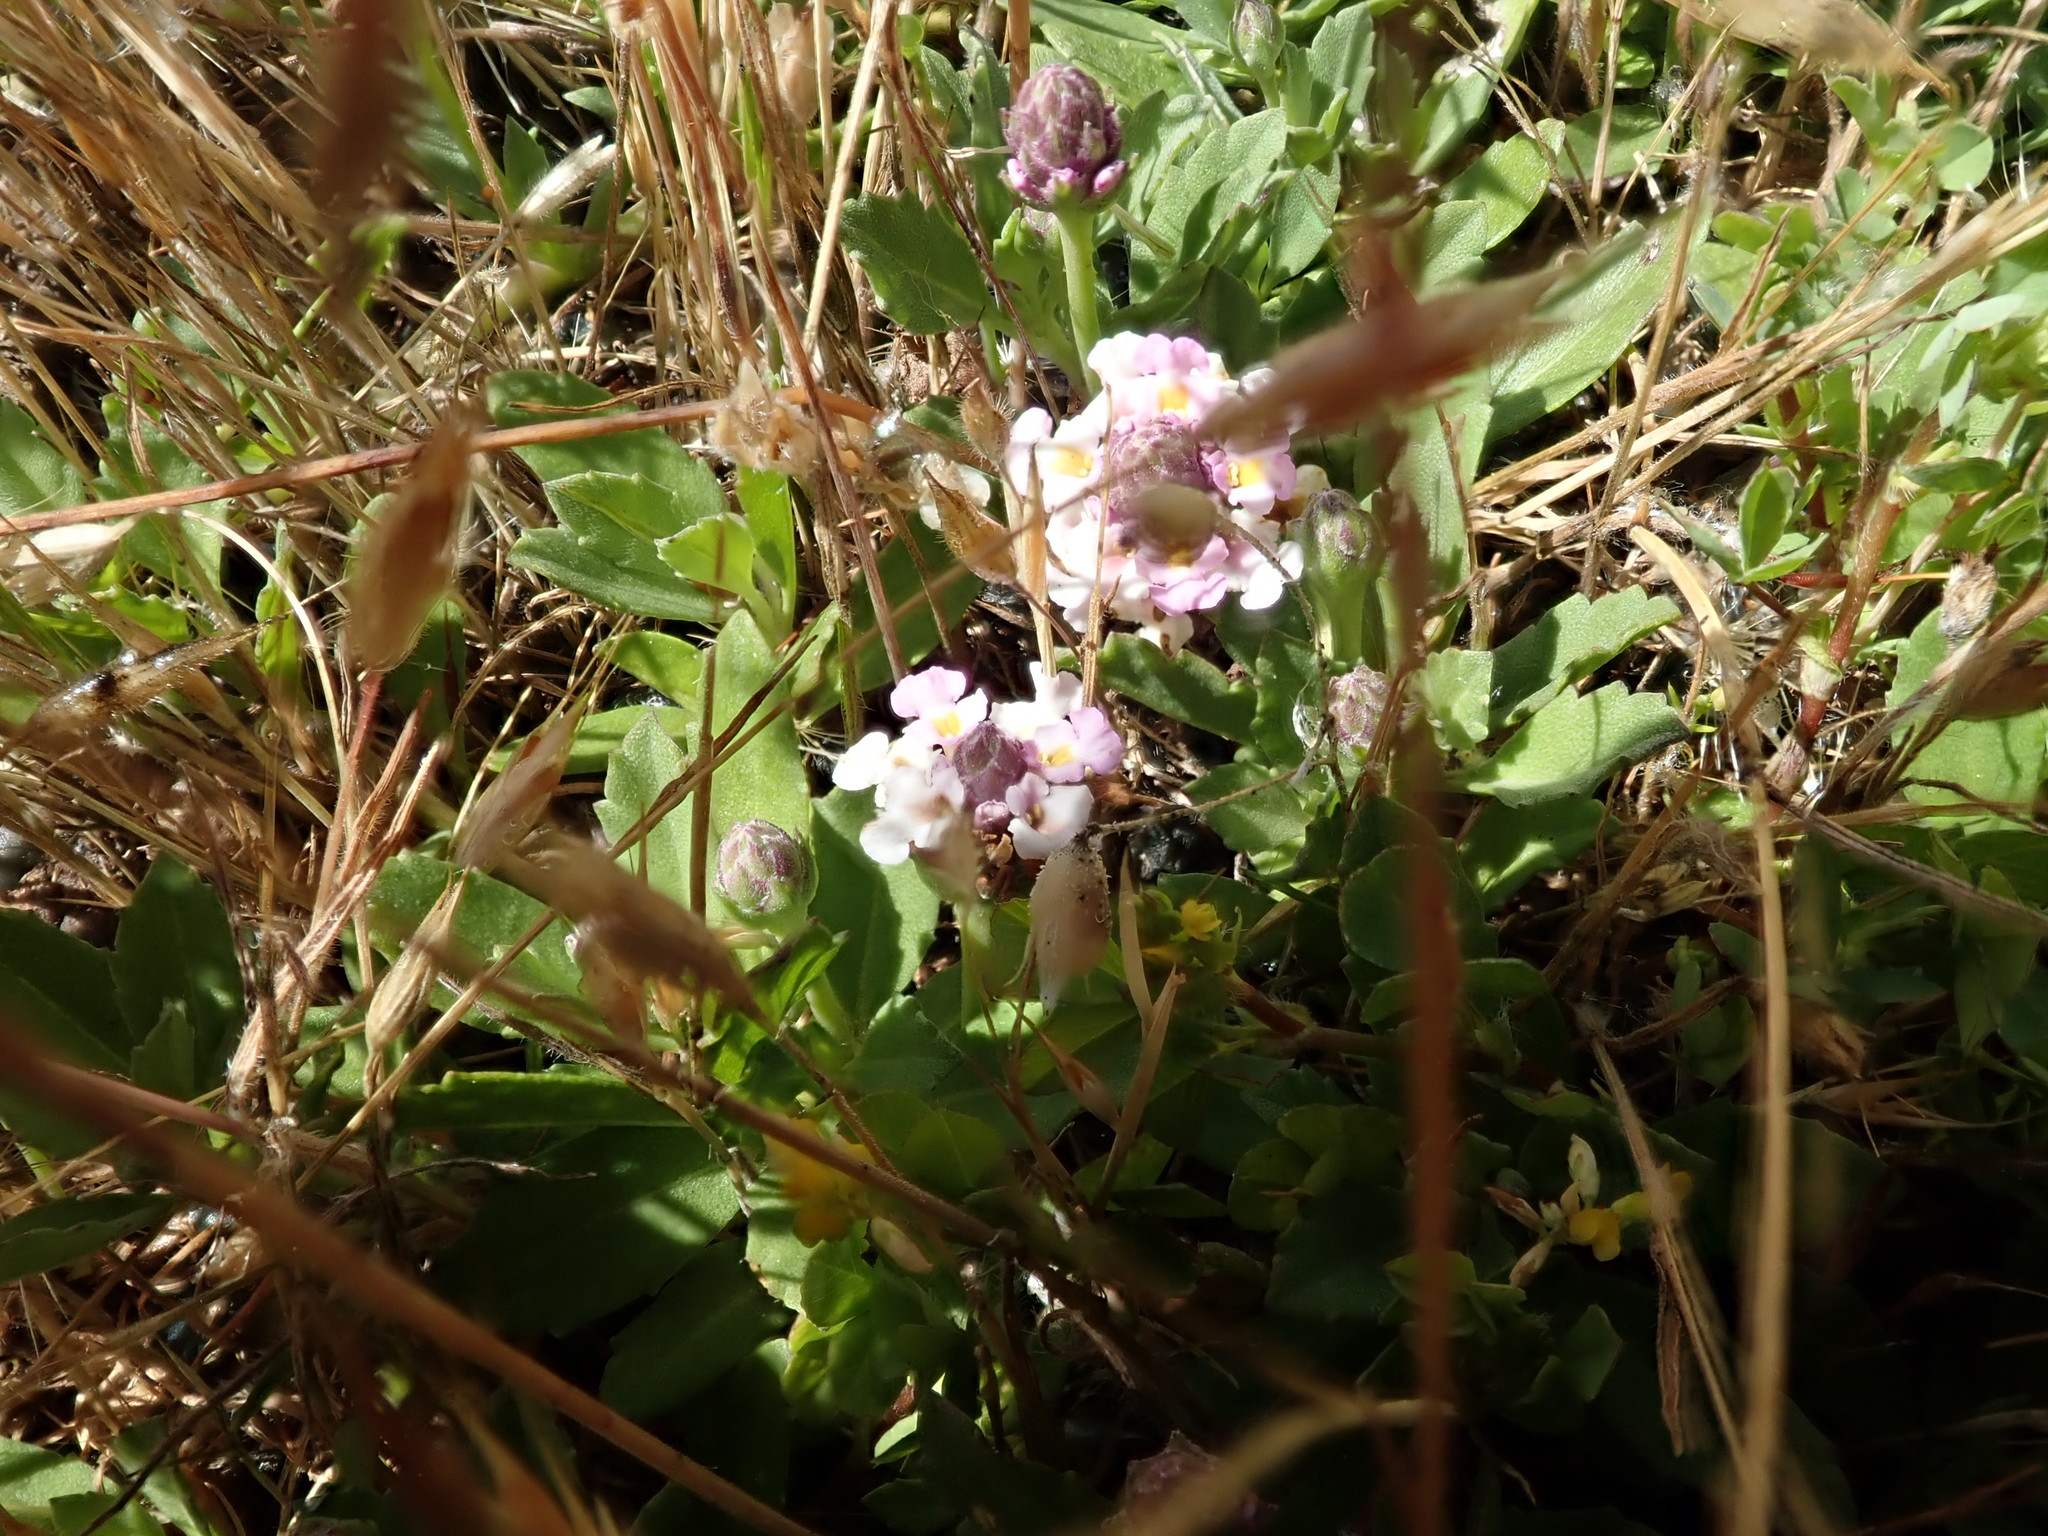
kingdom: Plantae
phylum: Tracheophyta
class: Magnoliopsida
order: Lamiales
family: Verbenaceae
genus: Phyla
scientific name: Phyla nodiflora
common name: Frogfruit
